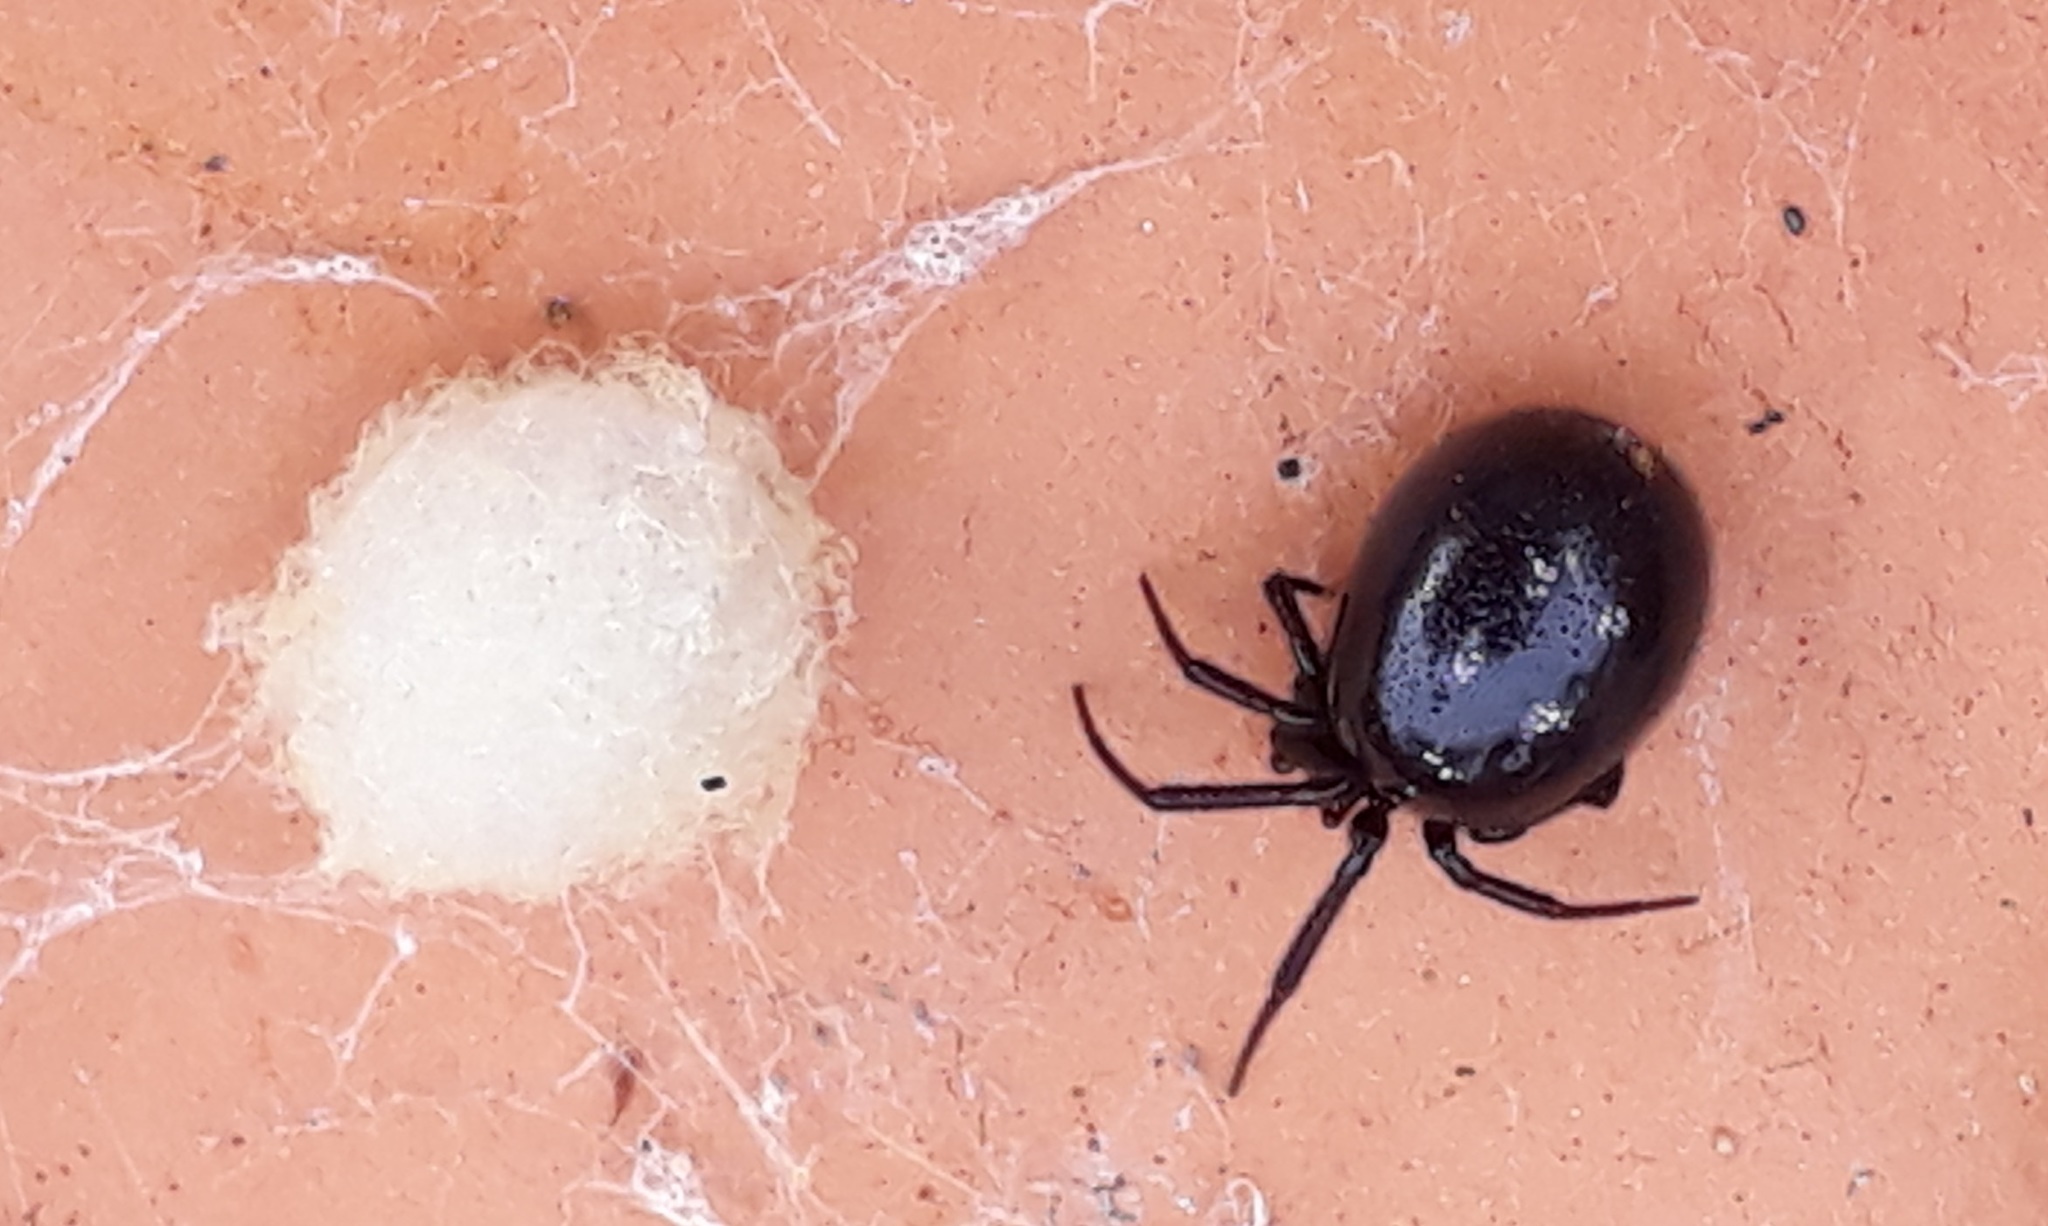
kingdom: Animalia
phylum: Arthropoda
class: Arachnida
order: Araneae
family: Theridiidae
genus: Steatoda
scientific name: Steatoda capensis
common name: Cobweb weaver
